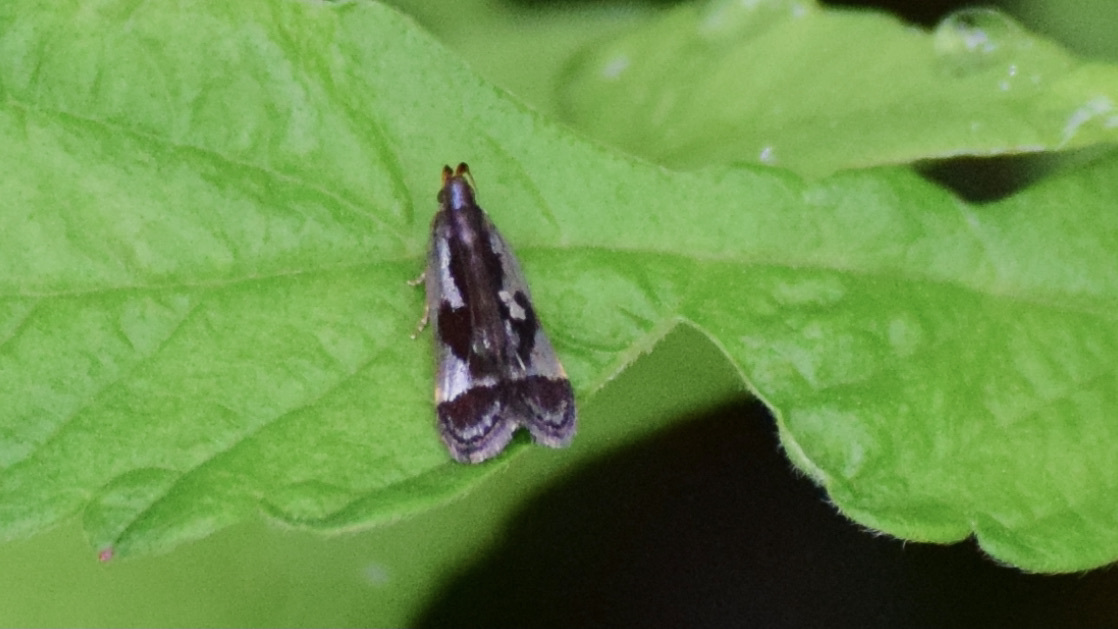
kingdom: Animalia
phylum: Arthropoda
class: Insecta
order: Lepidoptera
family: Gelechiidae
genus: Dichomeris
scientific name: Dichomeris ochripalpella
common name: Shining dichomeris moth
